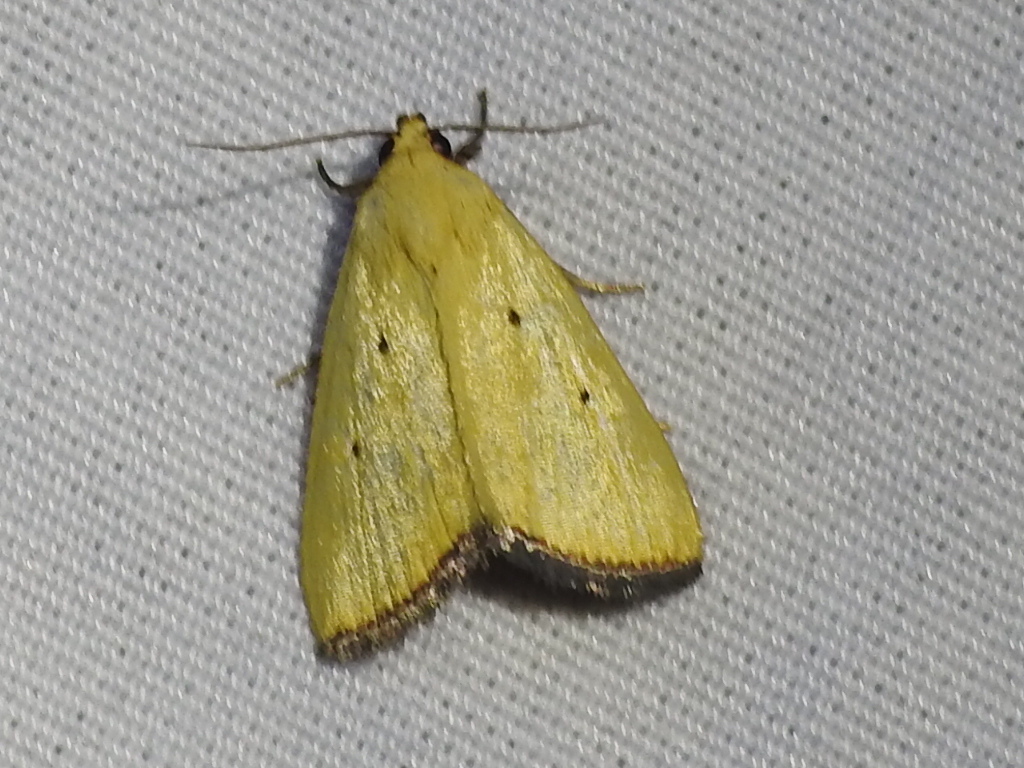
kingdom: Animalia
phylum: Arthropoda
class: Insecta
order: Lepidoptera
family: Noctuidae
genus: Marimatha
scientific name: Marimatha nigrofimbria
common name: Black-bordered lemon moth
